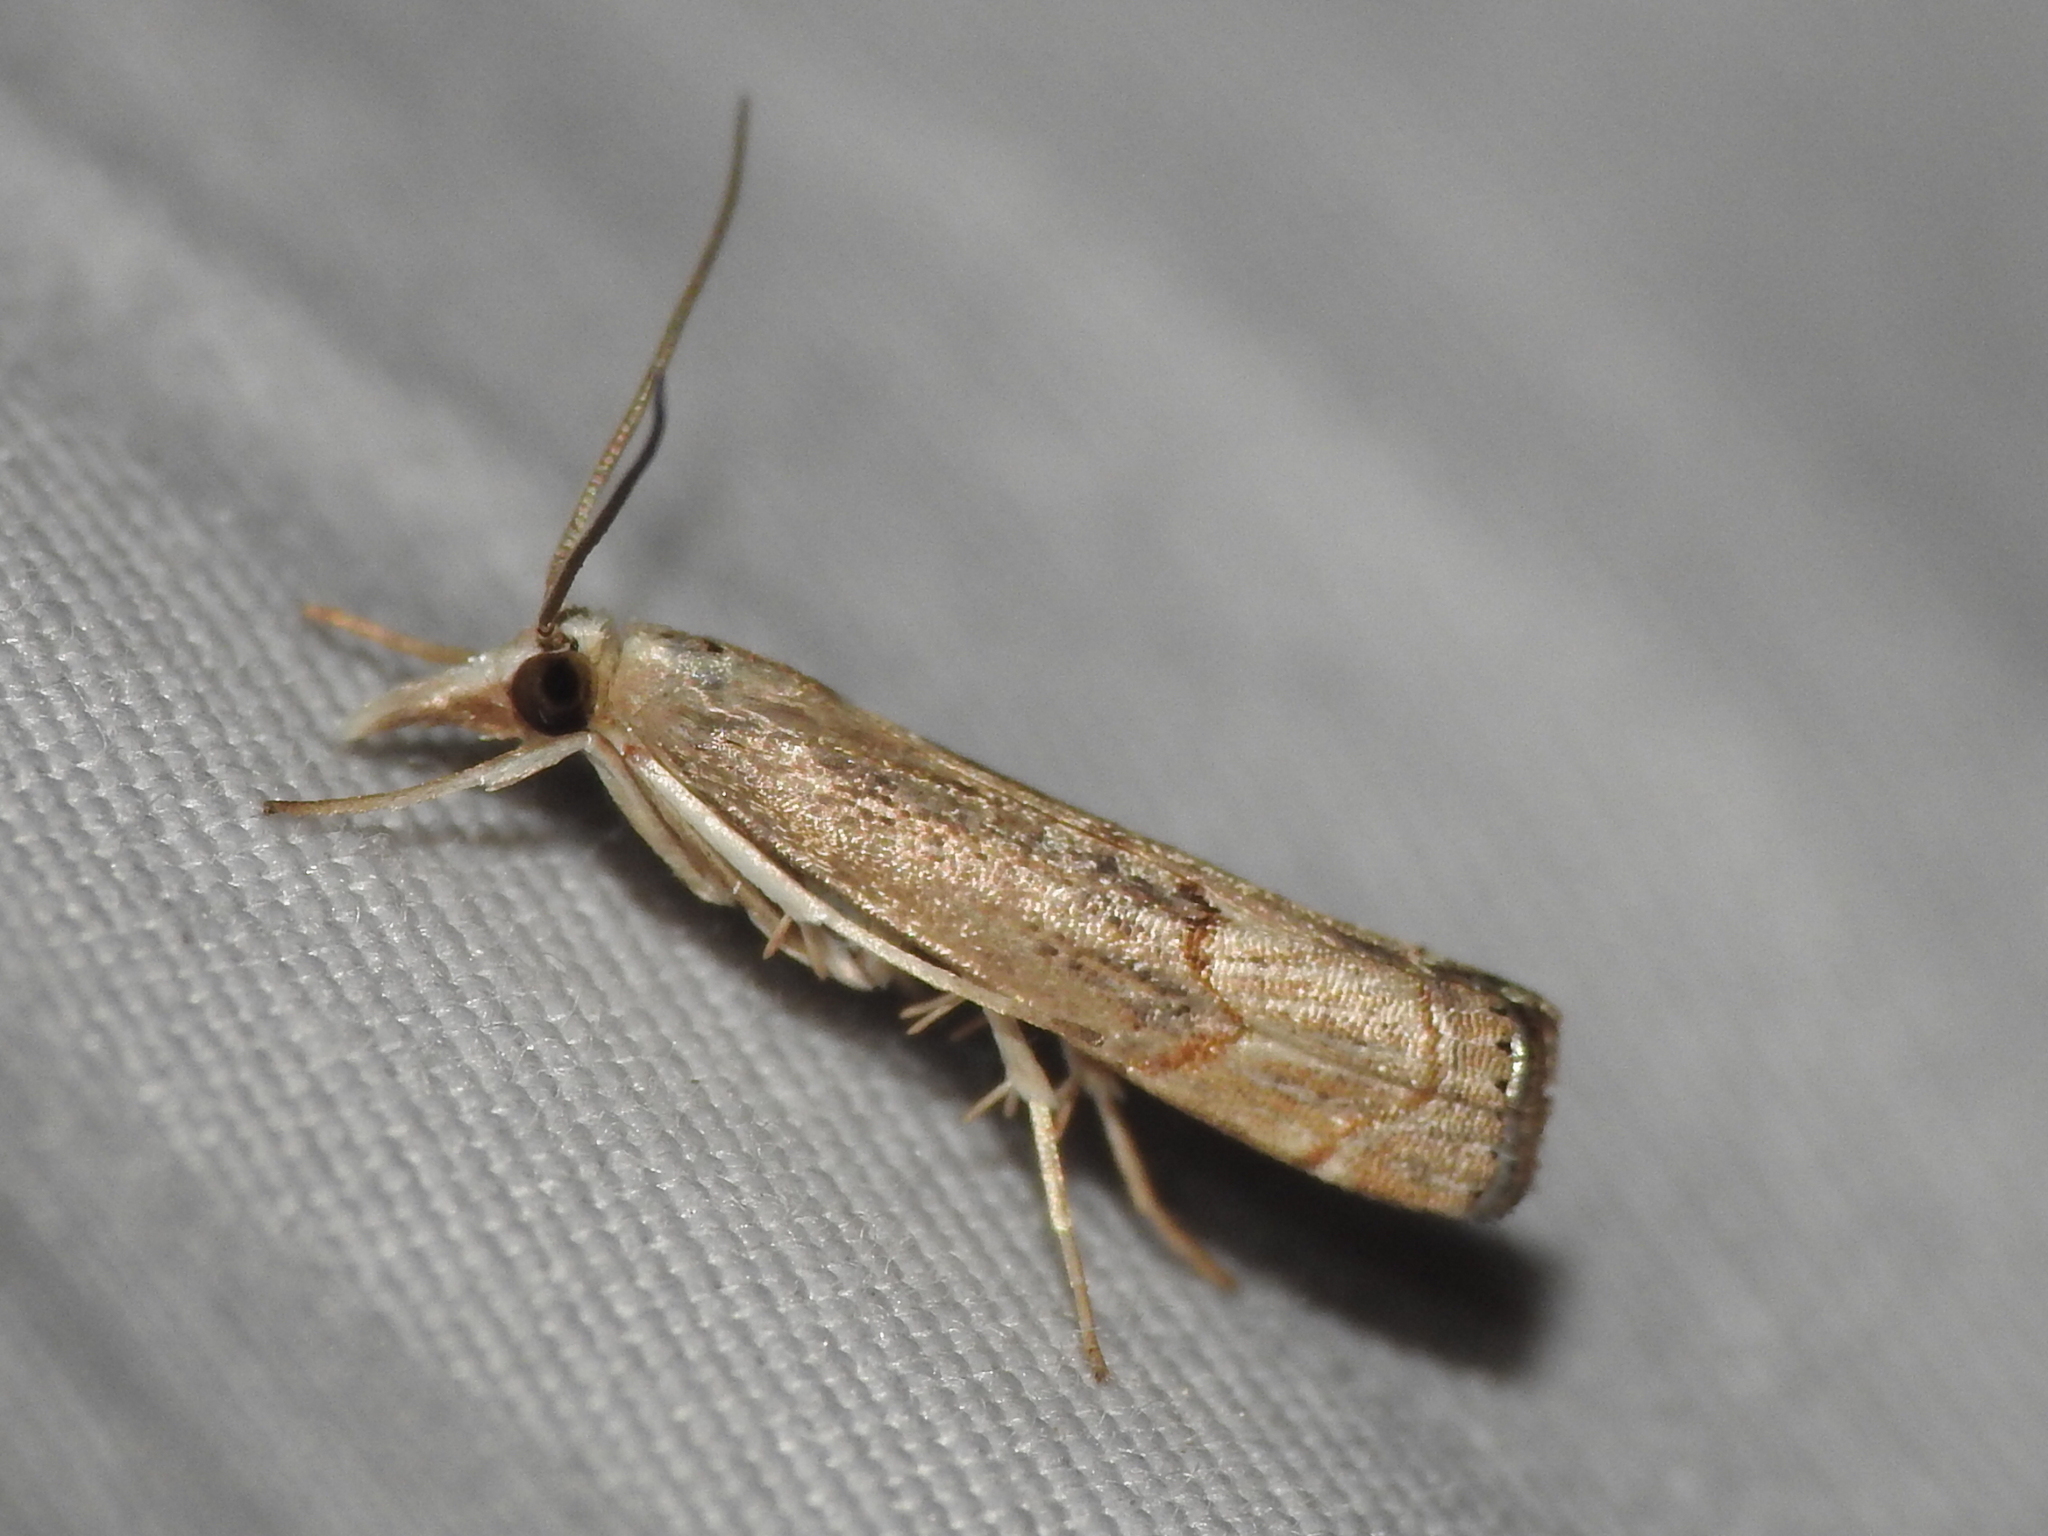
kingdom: Animalia
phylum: Arthropoda
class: Insecta
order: Lepidoptera
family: Crambidae
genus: Parapediasia
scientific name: Parapediasia teterellus
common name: Bluegrass webworm moth
